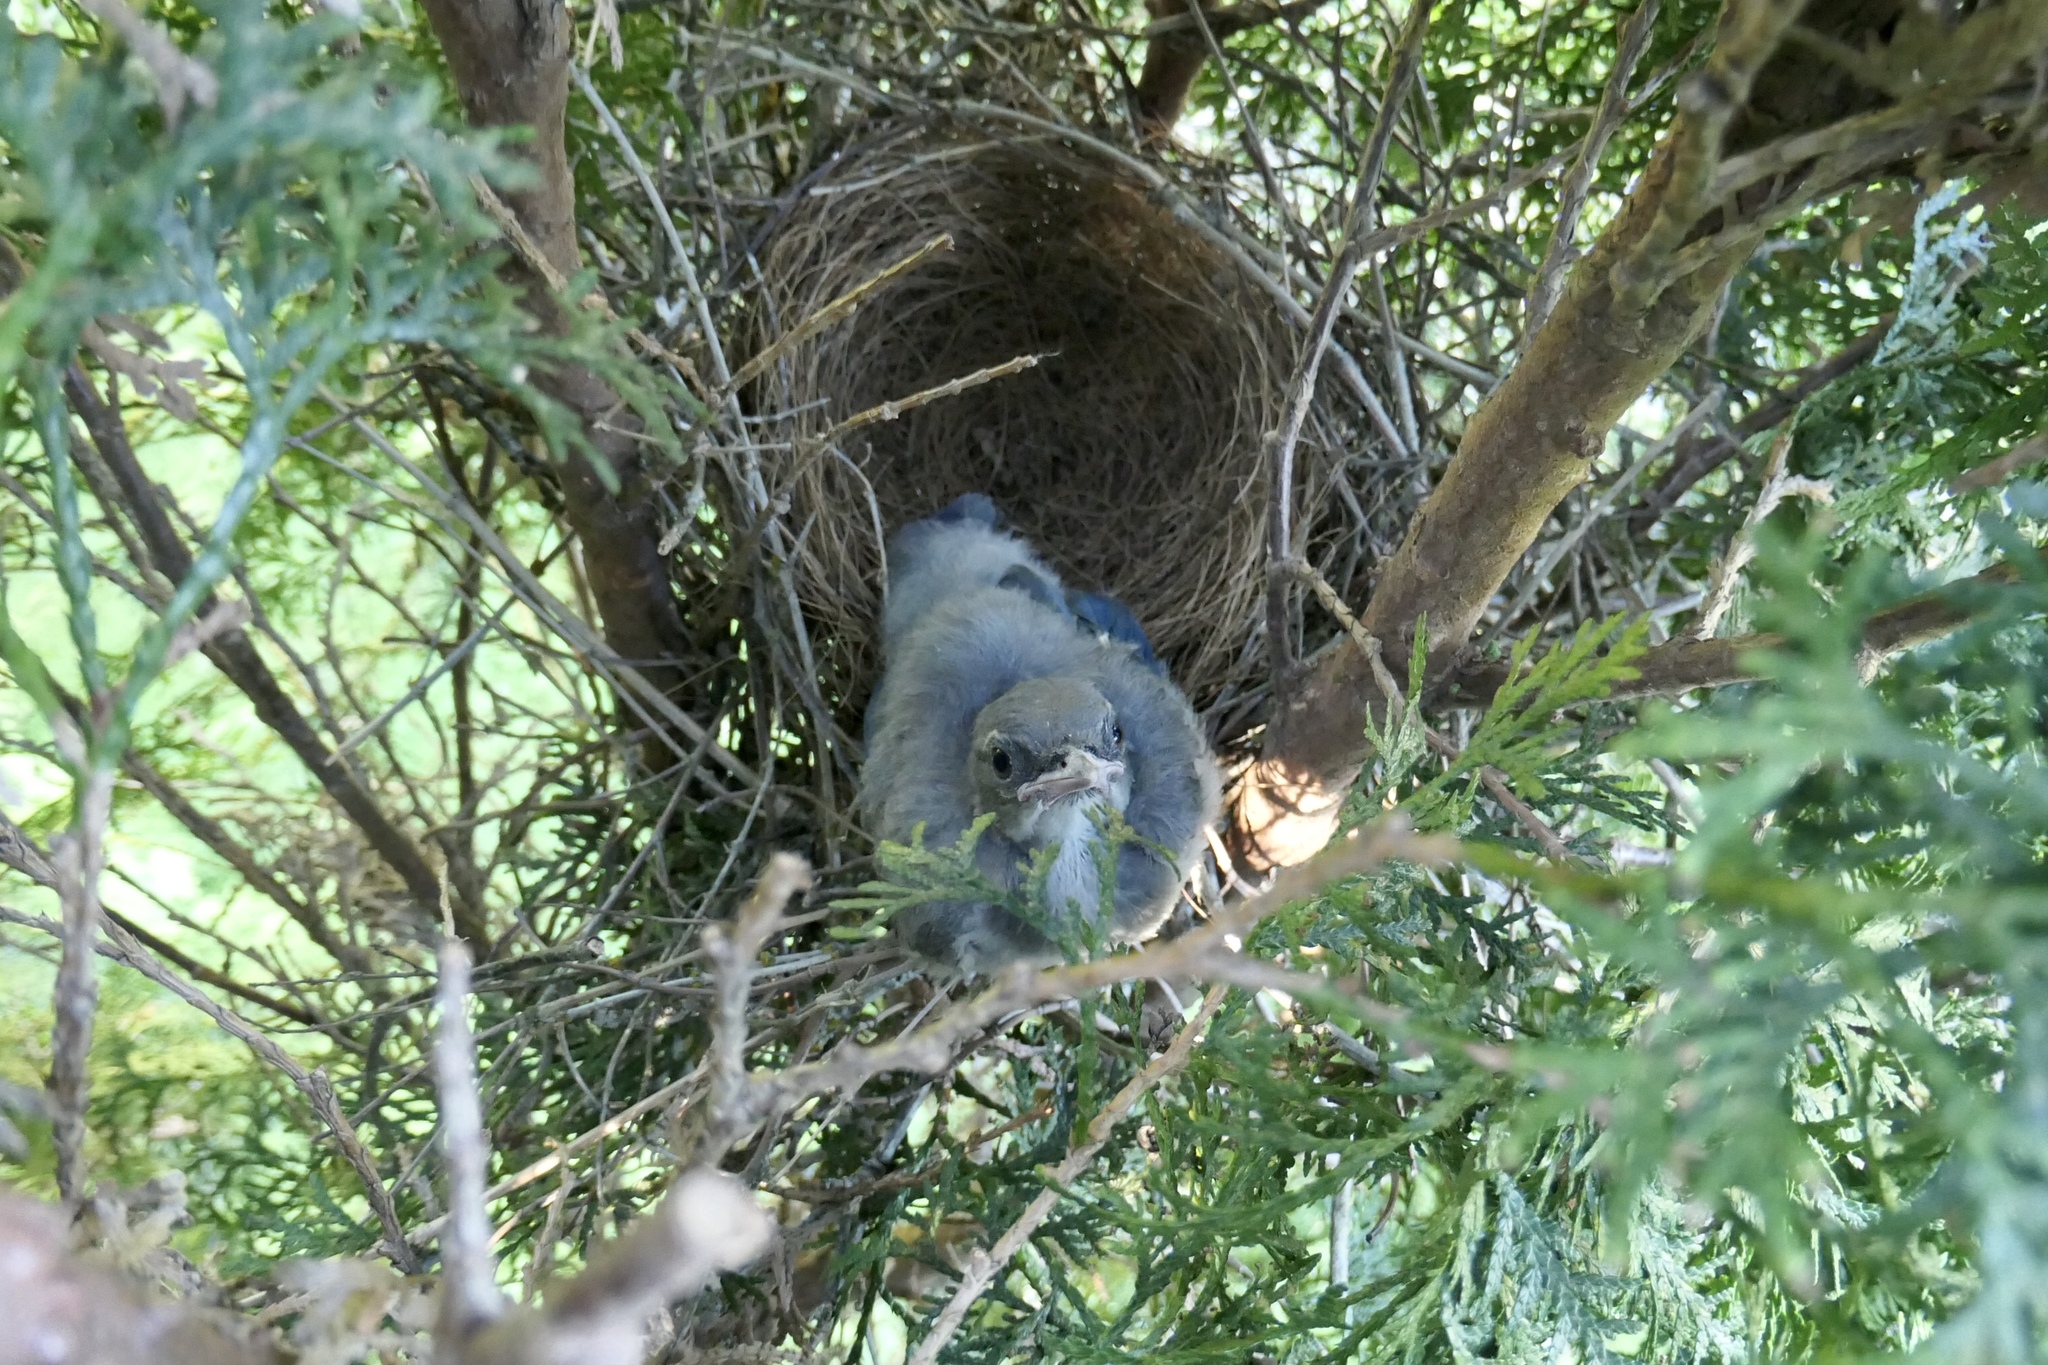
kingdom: Animalia
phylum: Chordata
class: Aves
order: Passeriformes
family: Corvidae
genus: Aphelocoma
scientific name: Aphelocoma californica
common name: California scrub-jay
